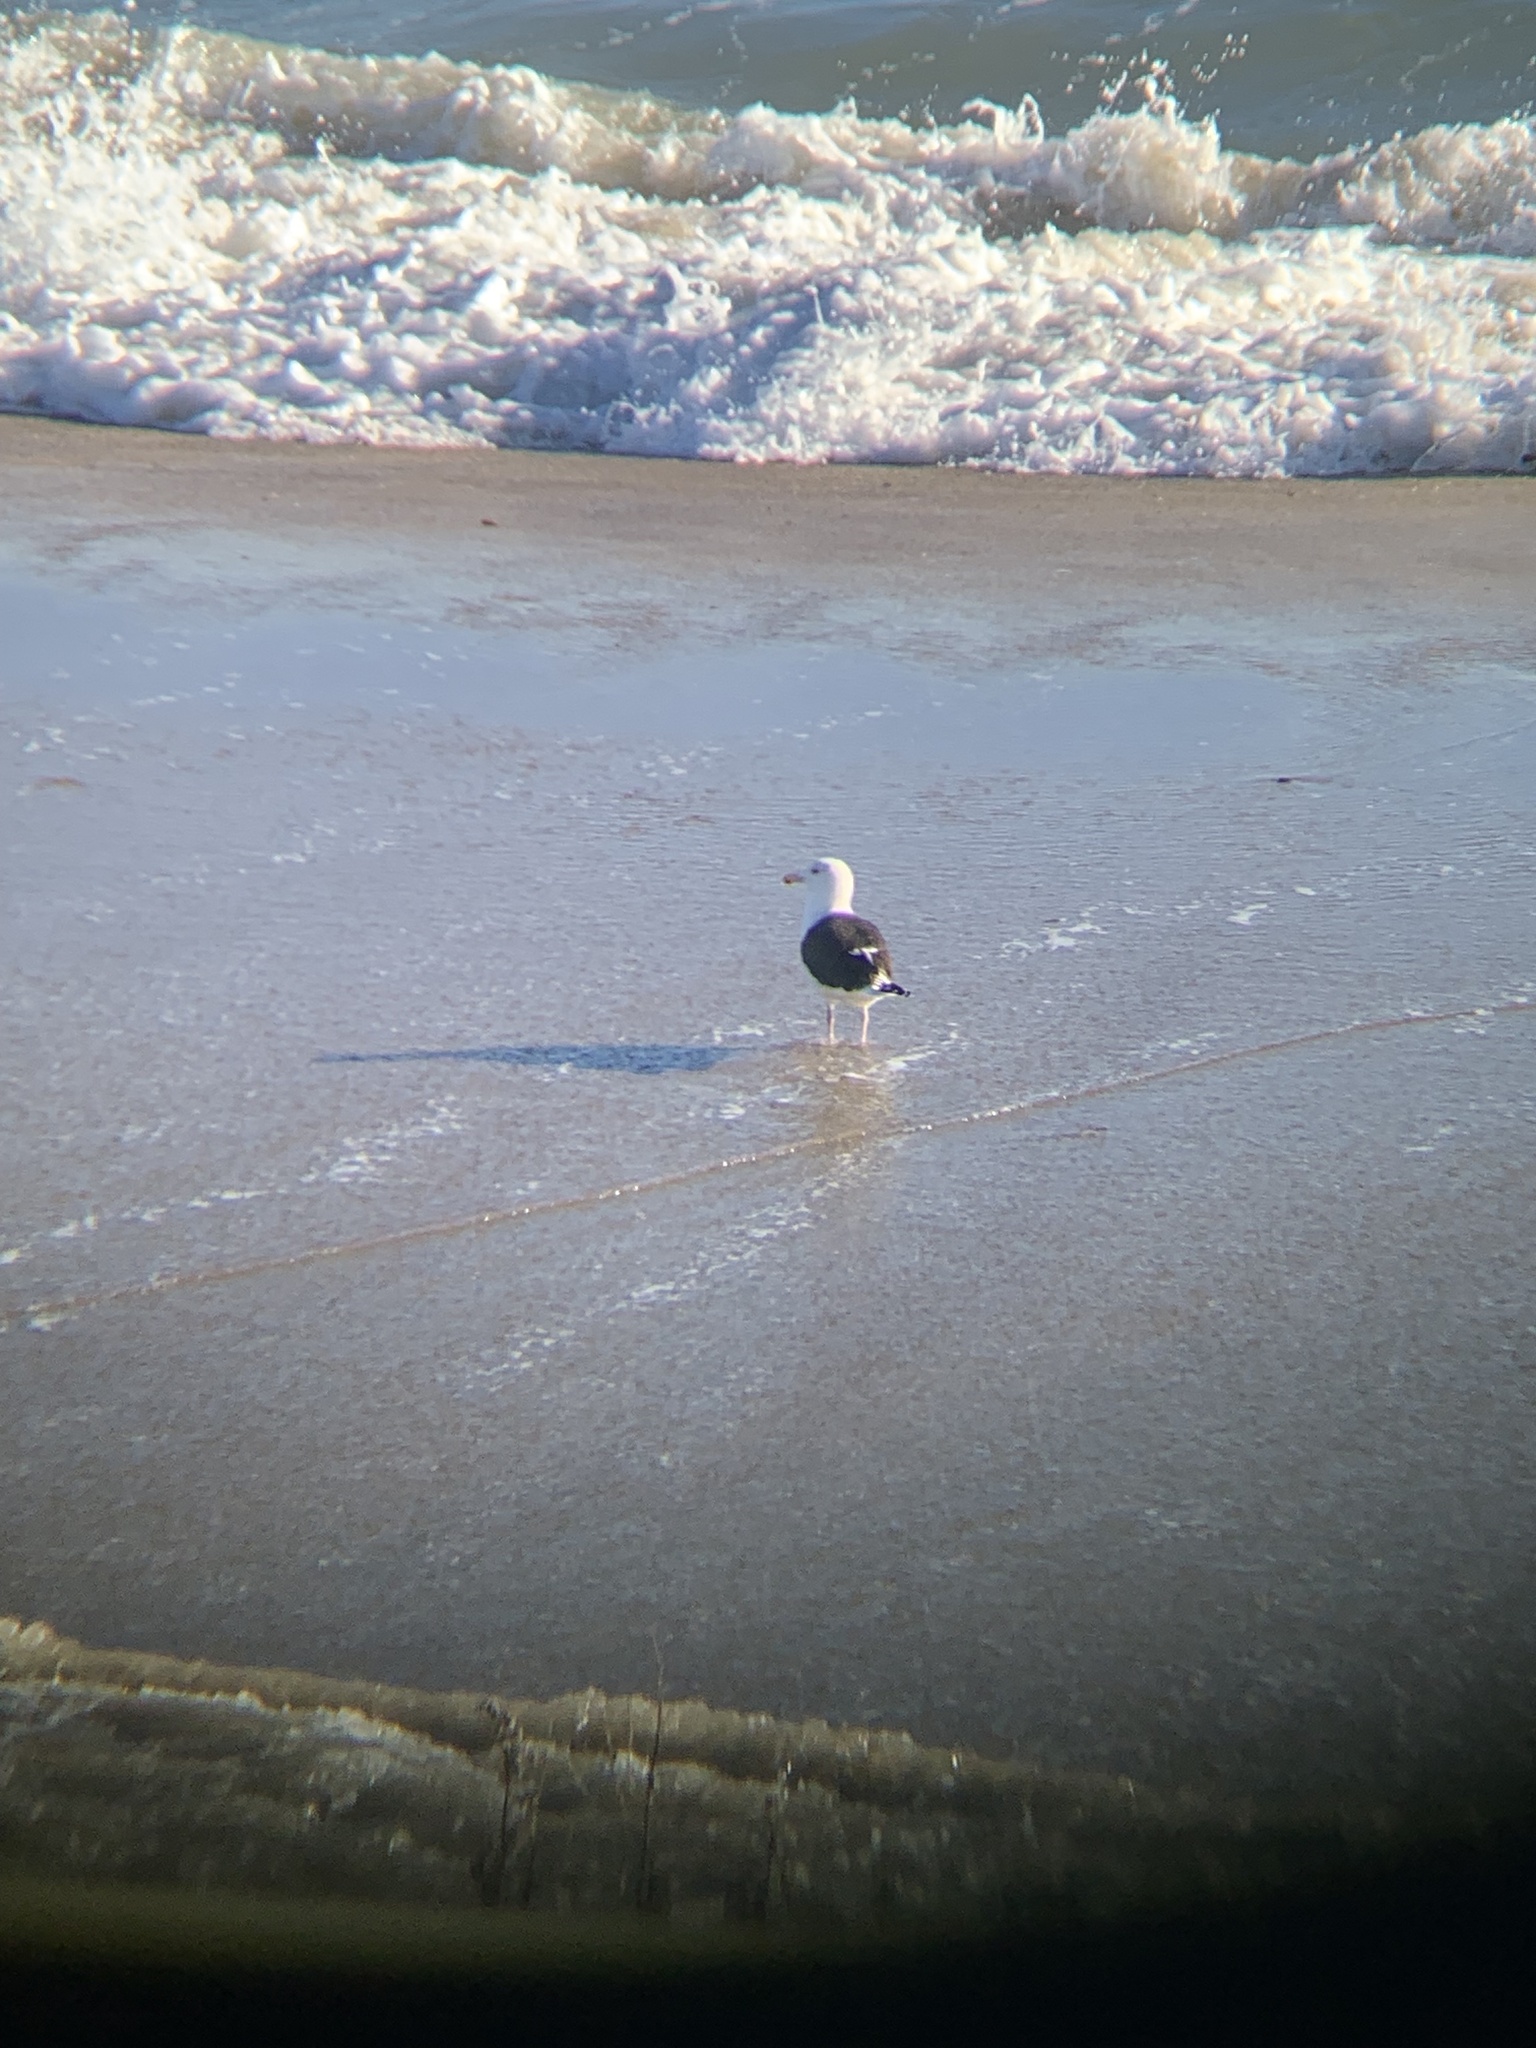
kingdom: Animalia
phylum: Chordata
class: Aves
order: Charadriiformes
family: Laridae
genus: Larus
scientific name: Larus marinus
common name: Great black-backed gull
